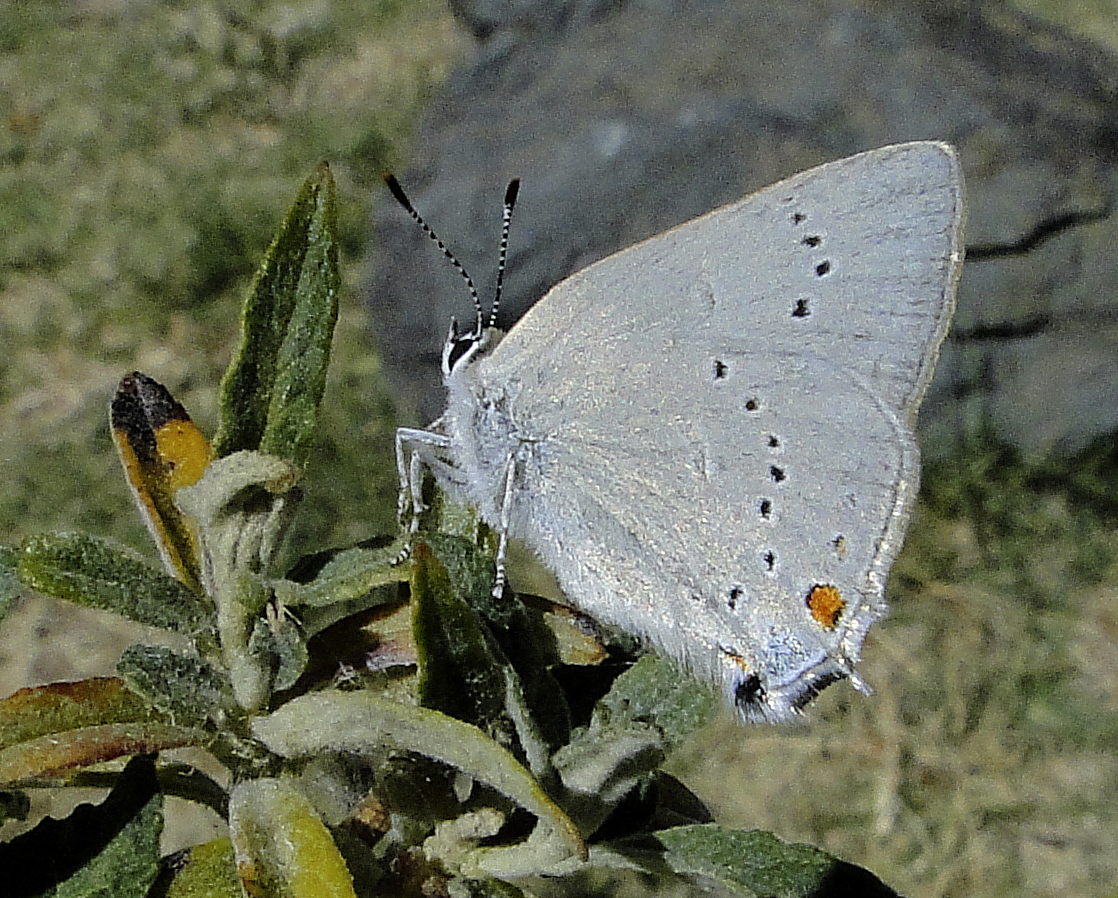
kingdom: Animalia
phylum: Arthropoda
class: Insecta
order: Lepidoptera
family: Lycaenidae
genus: Strymon
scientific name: Strymon sylvinus
